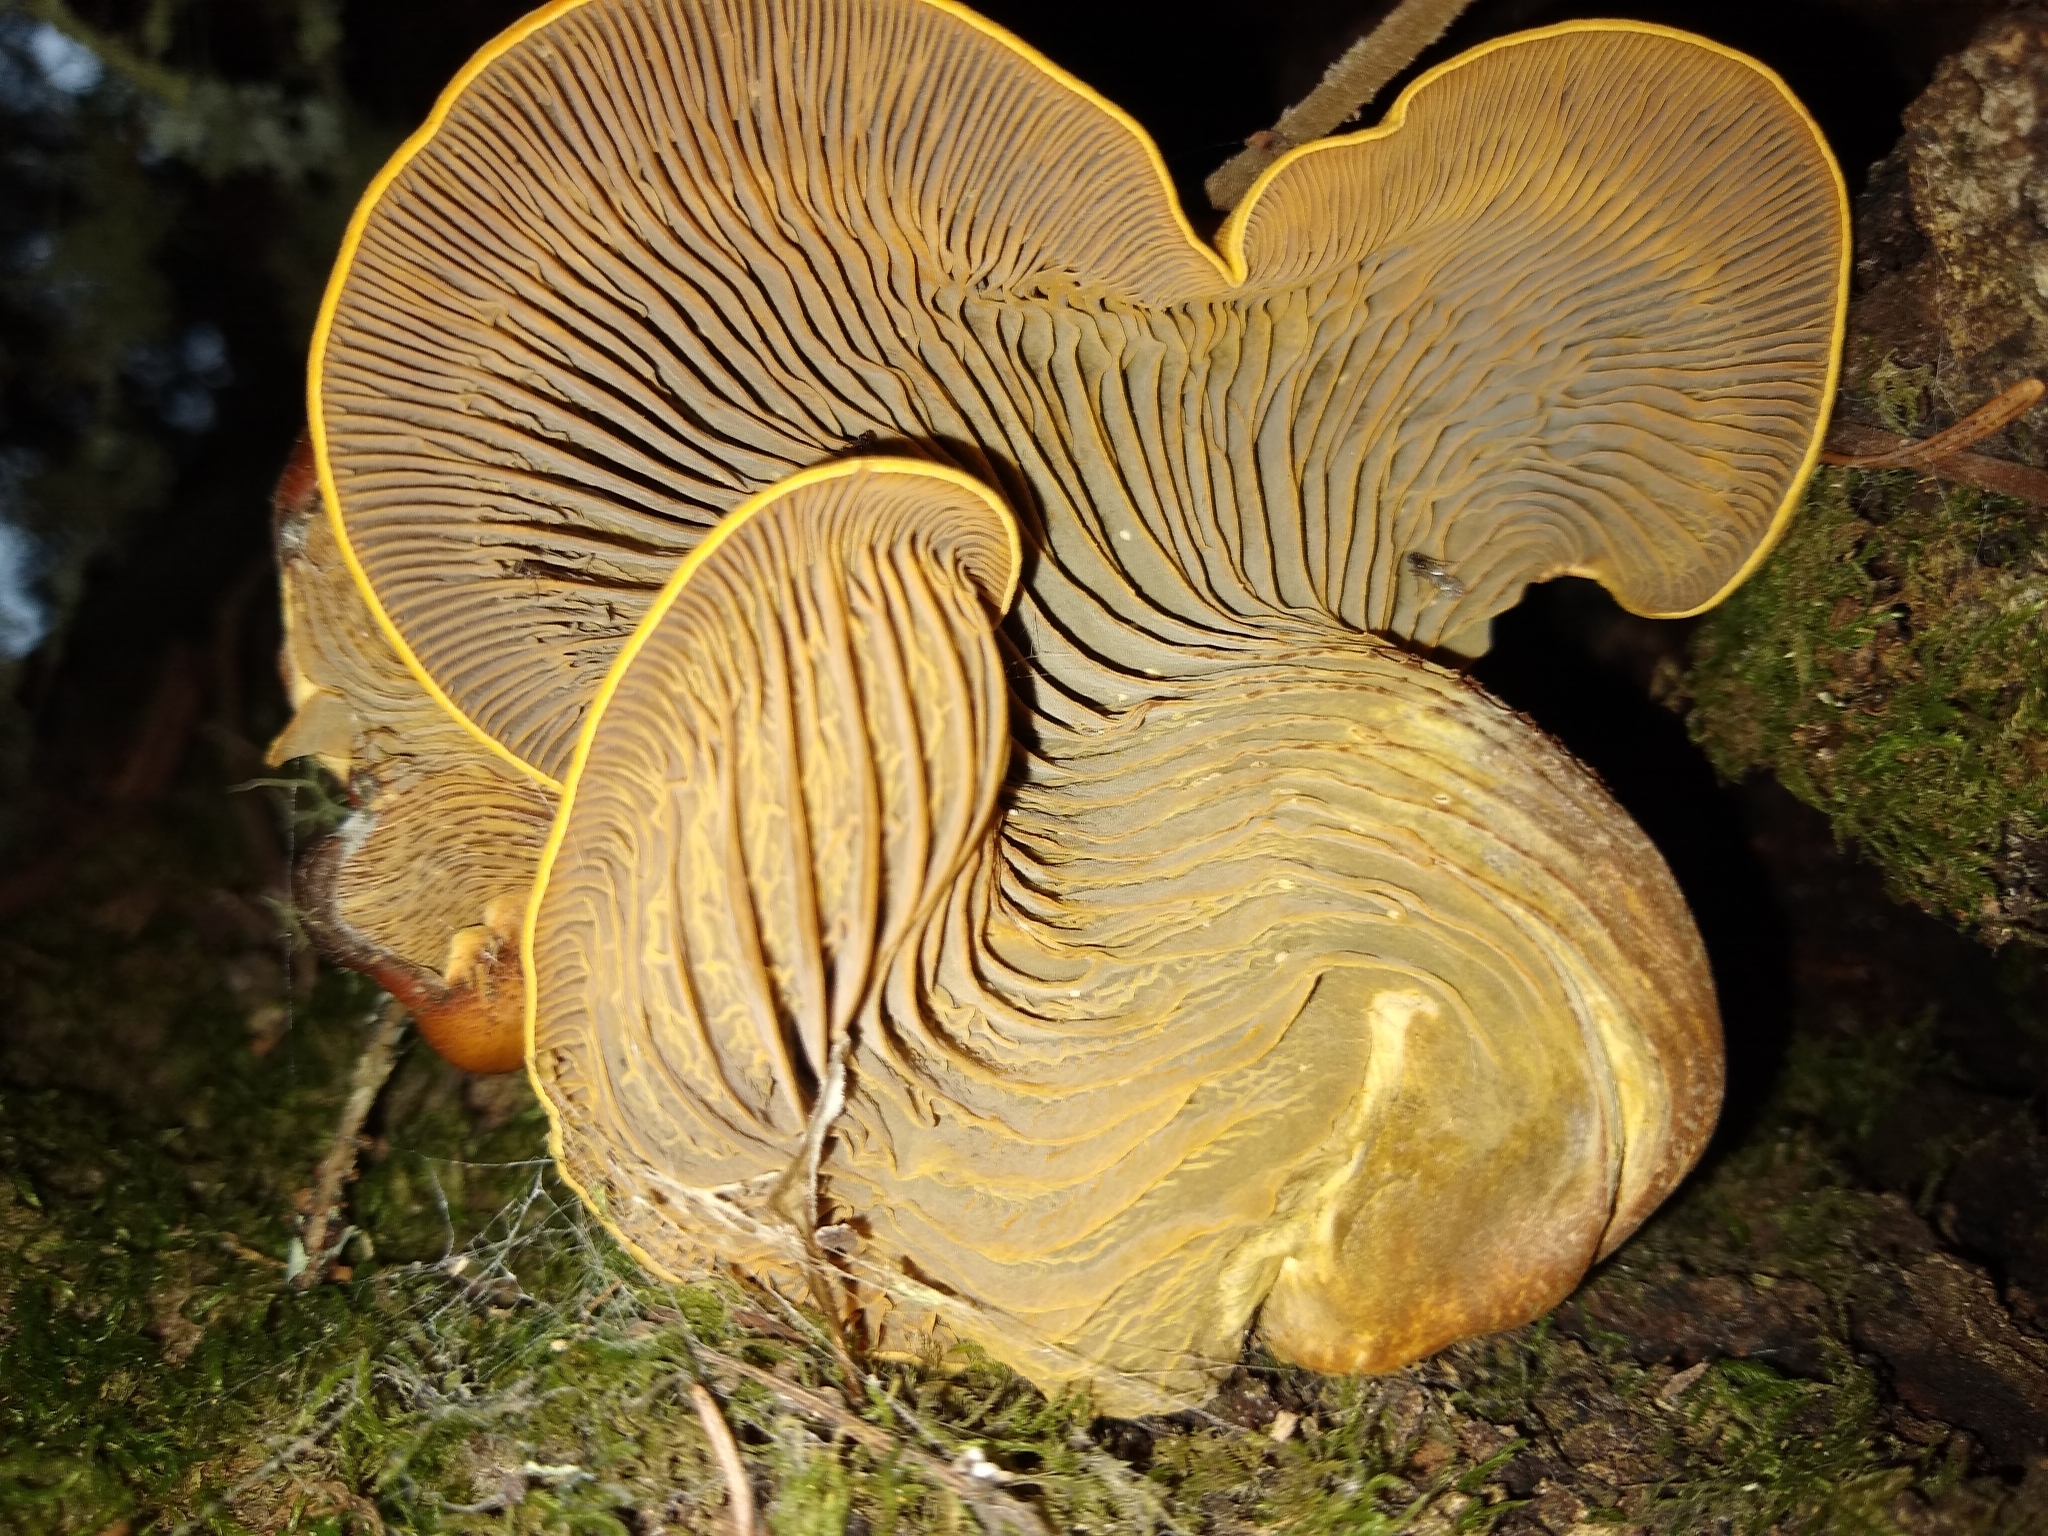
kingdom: Fungi
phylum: Basidiomycota
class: Agaricomycetes
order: Agaricales
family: Omphalotaceae
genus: Omphalotus
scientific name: Omphalotus olivascens
